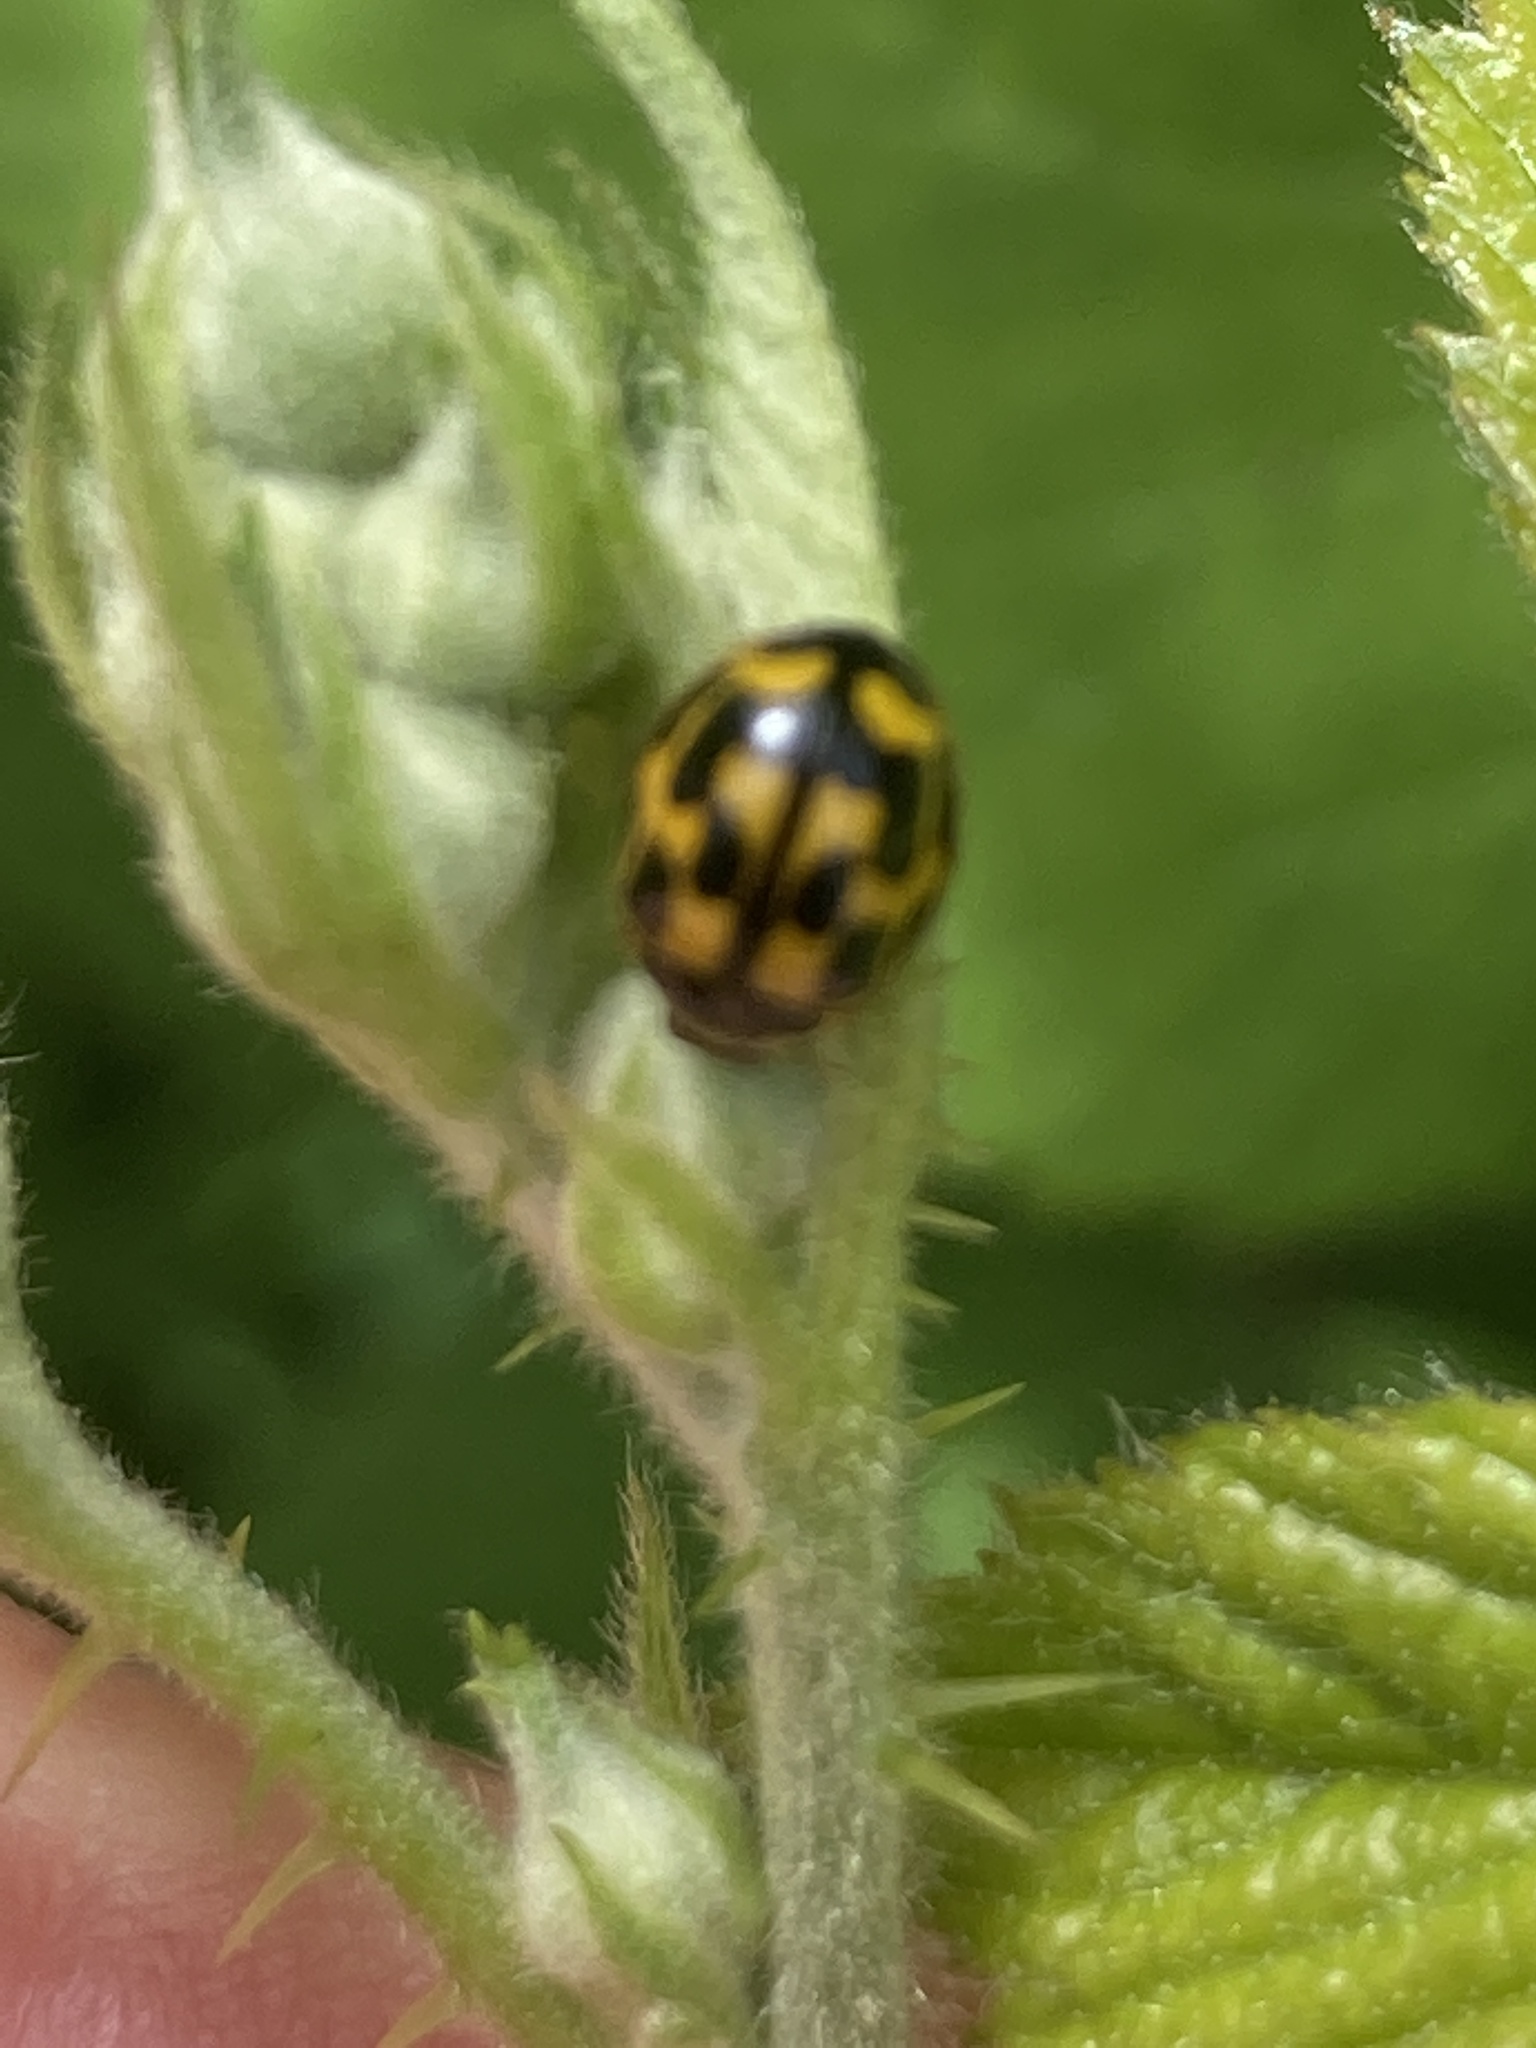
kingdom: Animalia
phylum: Arthropoda
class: Insecta
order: Coleoptera
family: Coccinellidae
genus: Propylaea
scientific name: Propylaea quatuordecimpunctata
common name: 14-spotted ladybird beetle
